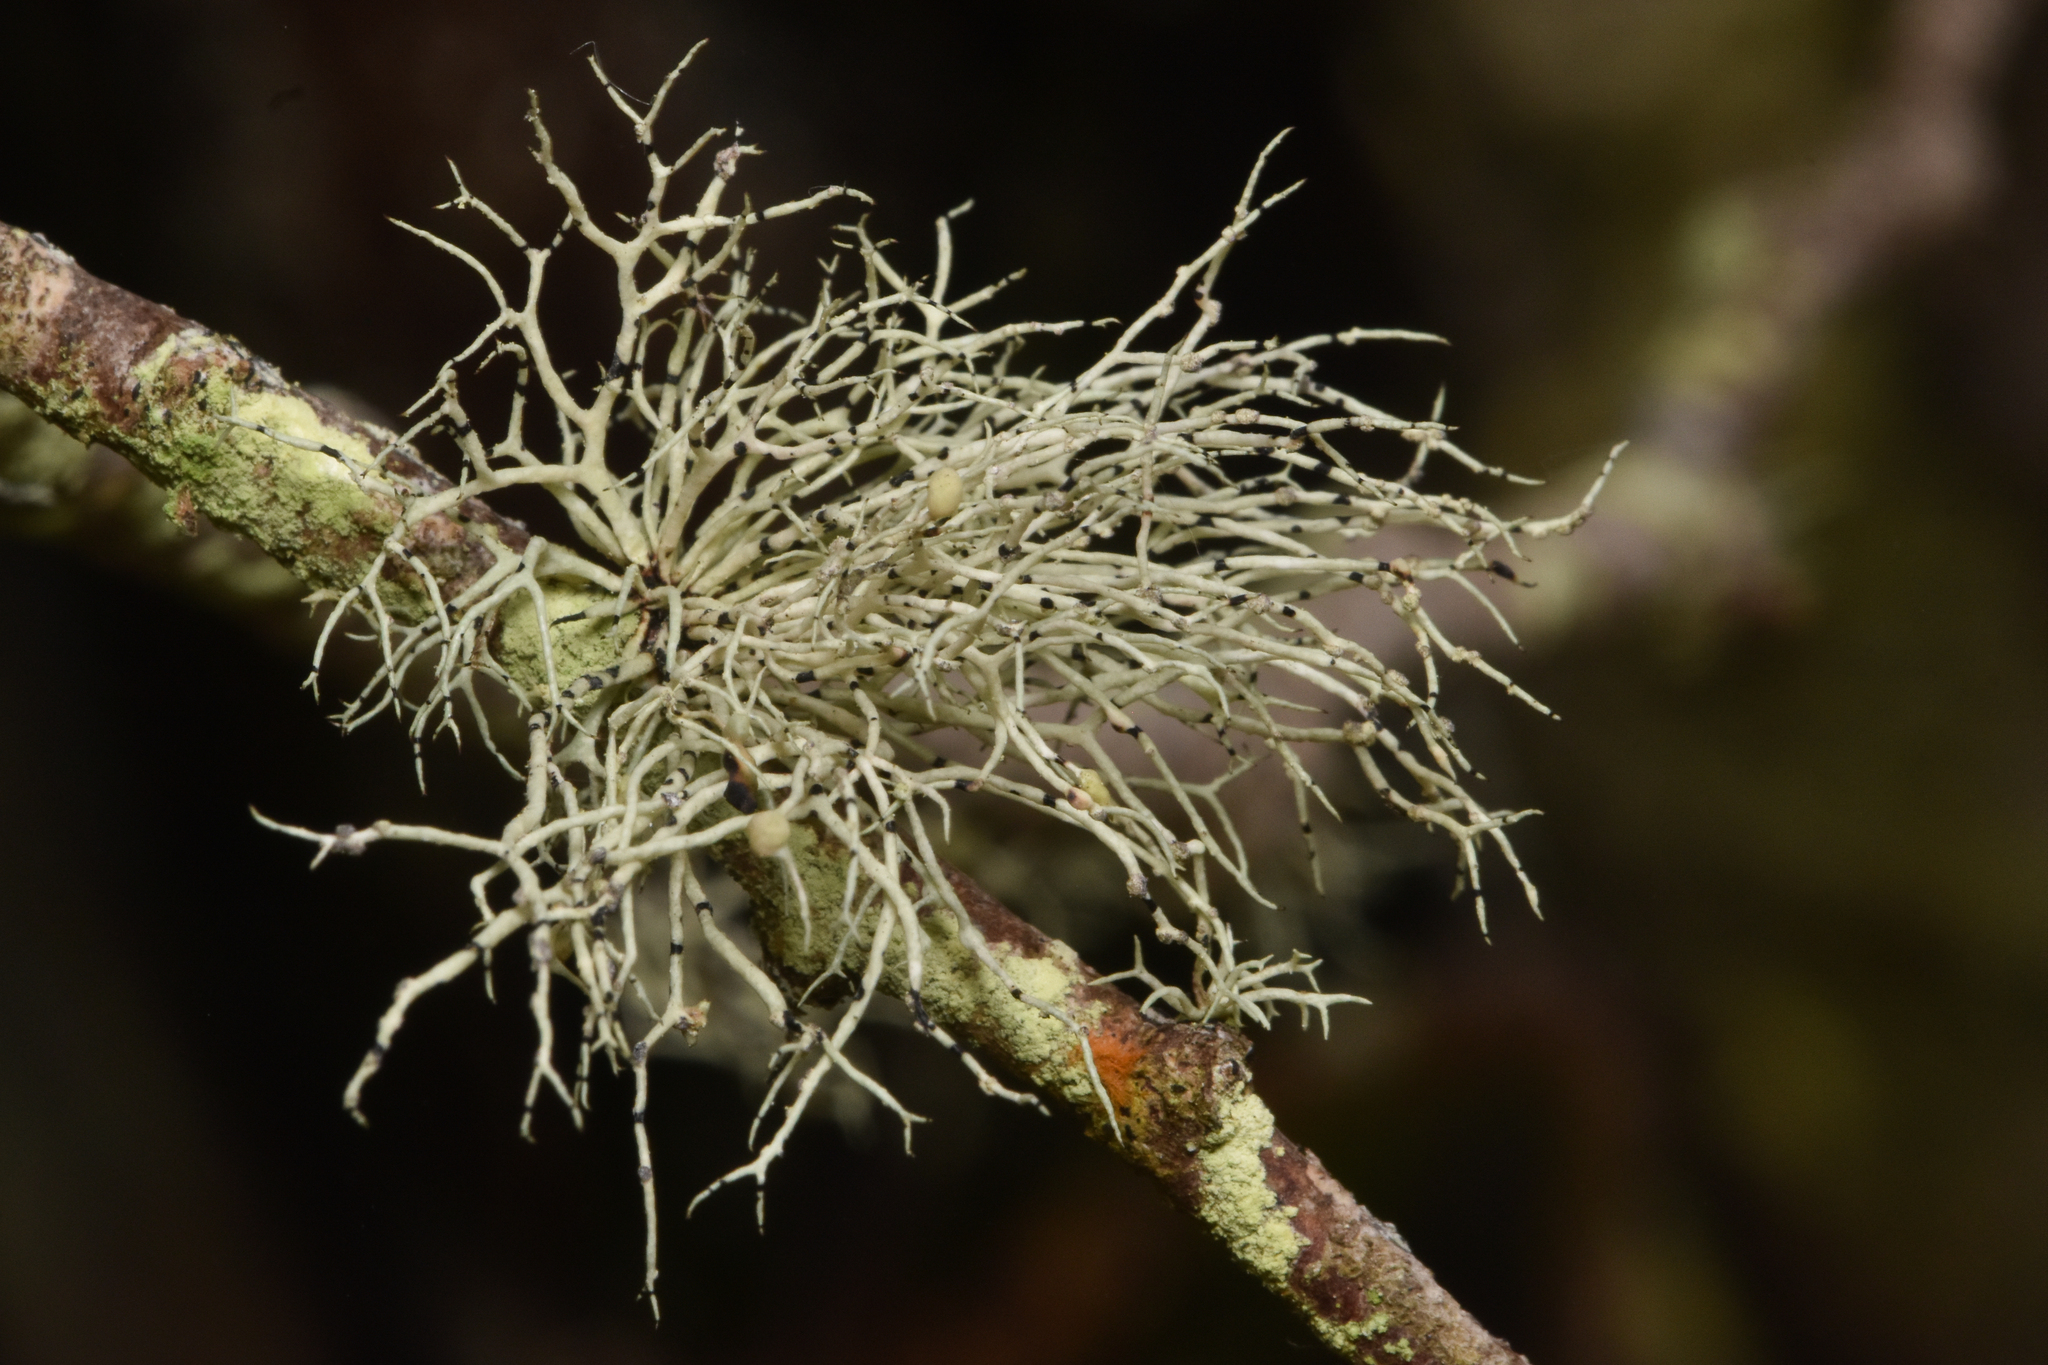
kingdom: Fungi
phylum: Ascomycota
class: Lecanoromycetes
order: Lecanorales
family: Ramalinaceae
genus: Niebla
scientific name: Niebla cephalota
